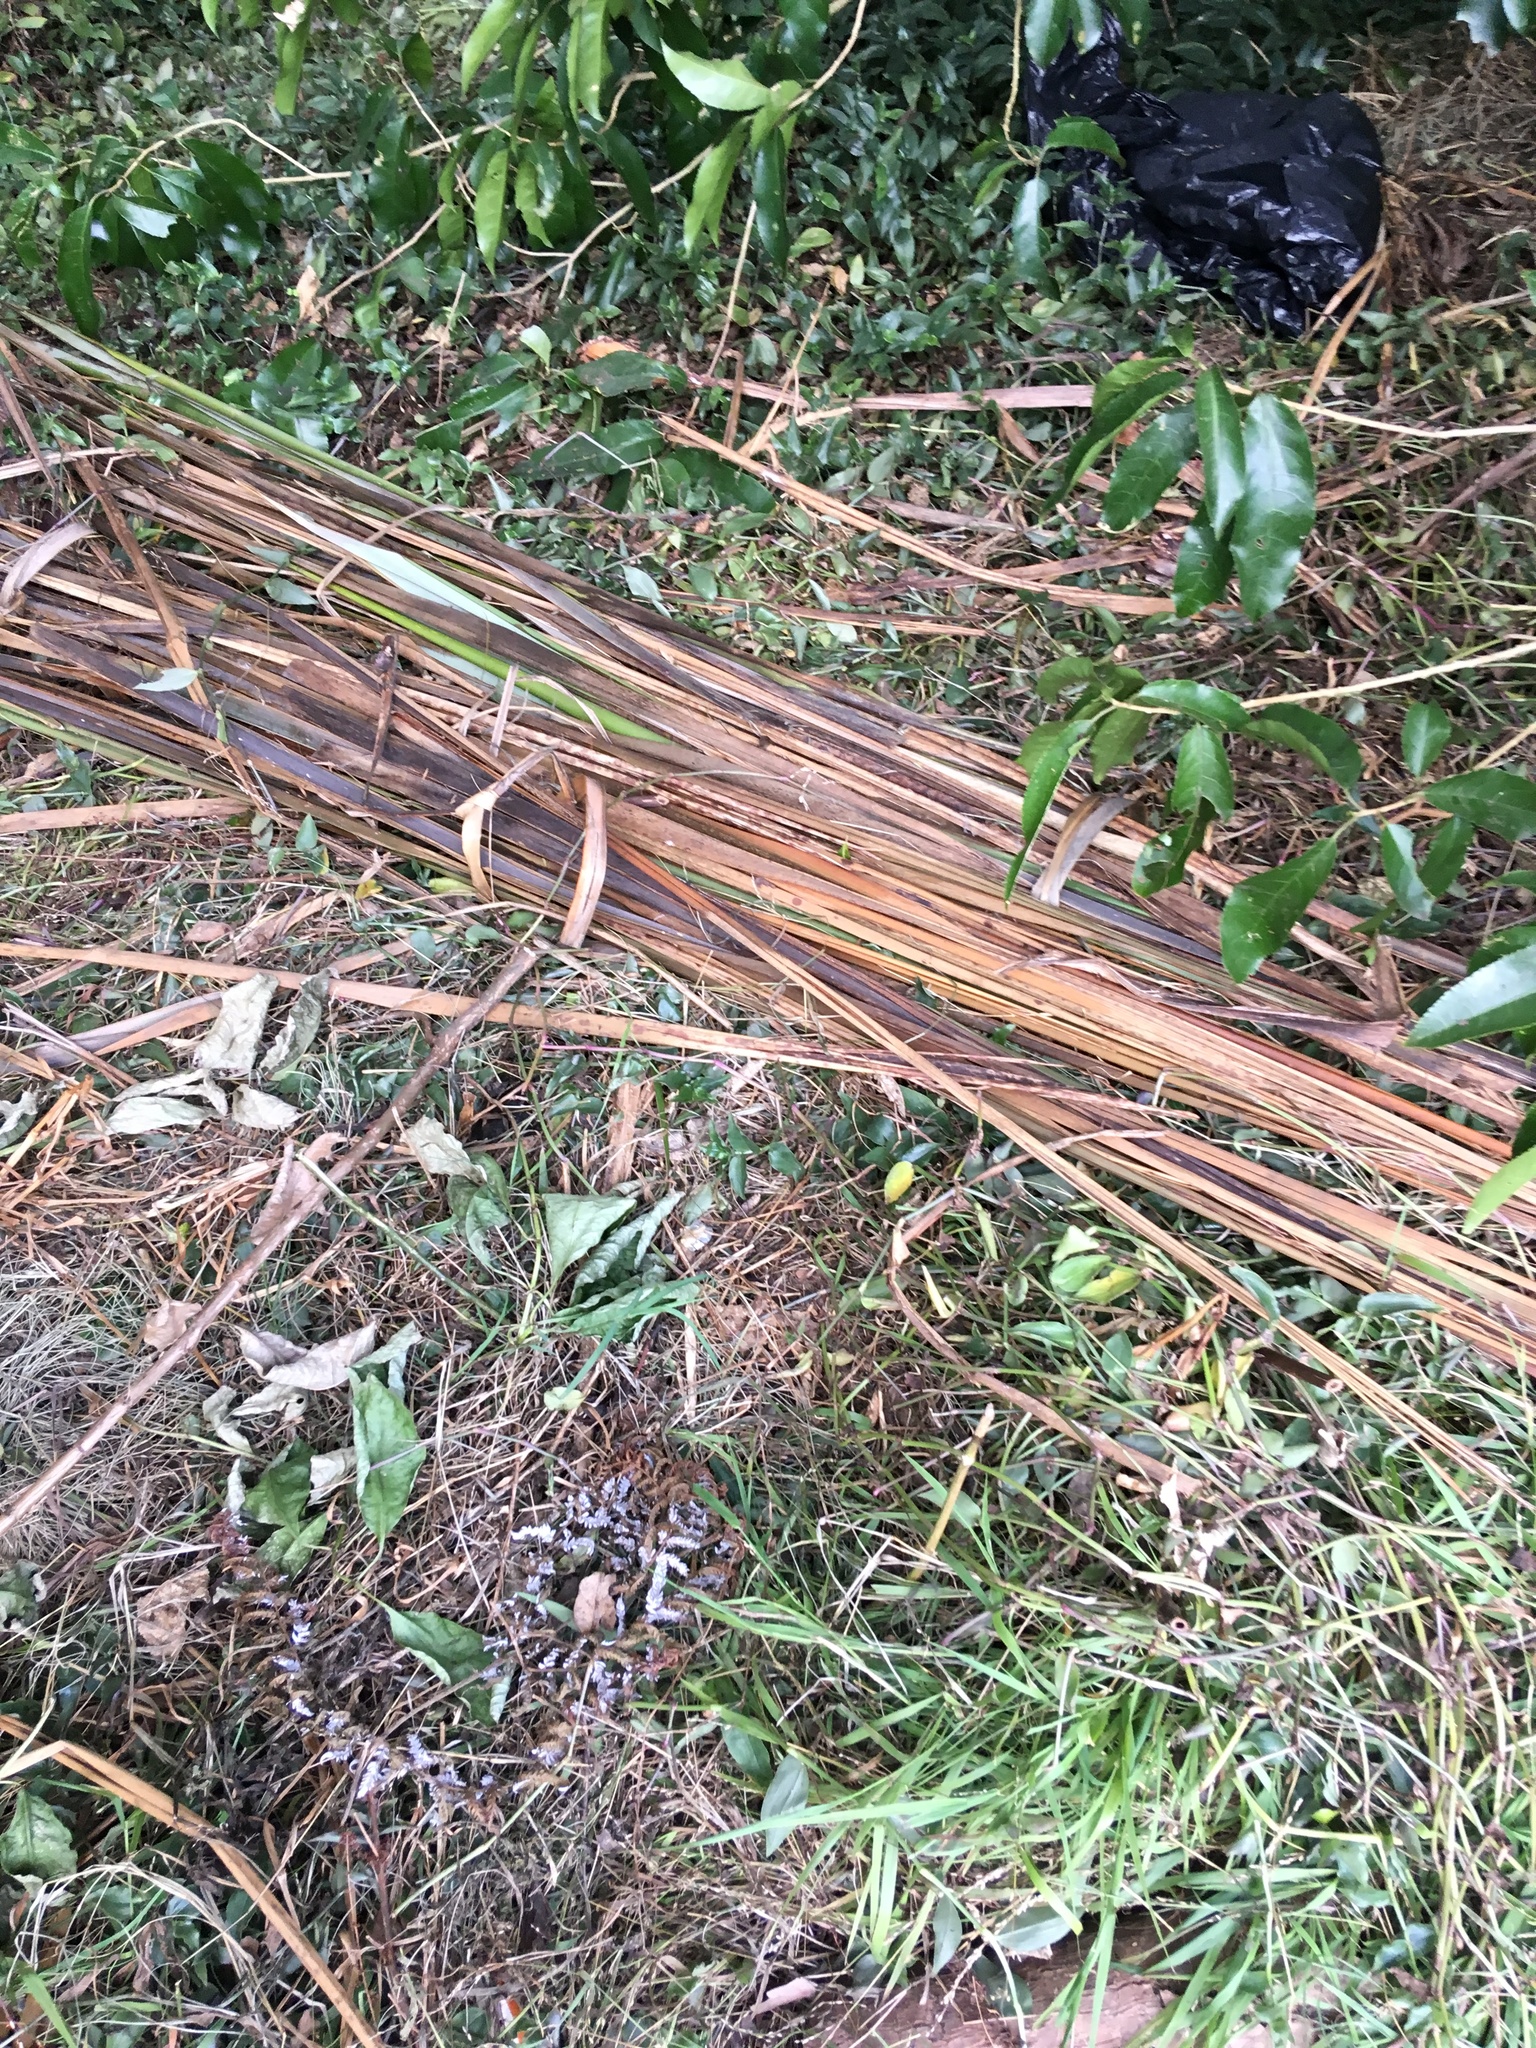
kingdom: Plantae
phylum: Tracheophyta
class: Liliopsida
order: Asparagales
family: Asphodelaceae
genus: Phormium
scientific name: Phormium tenax
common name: New zealand flax
